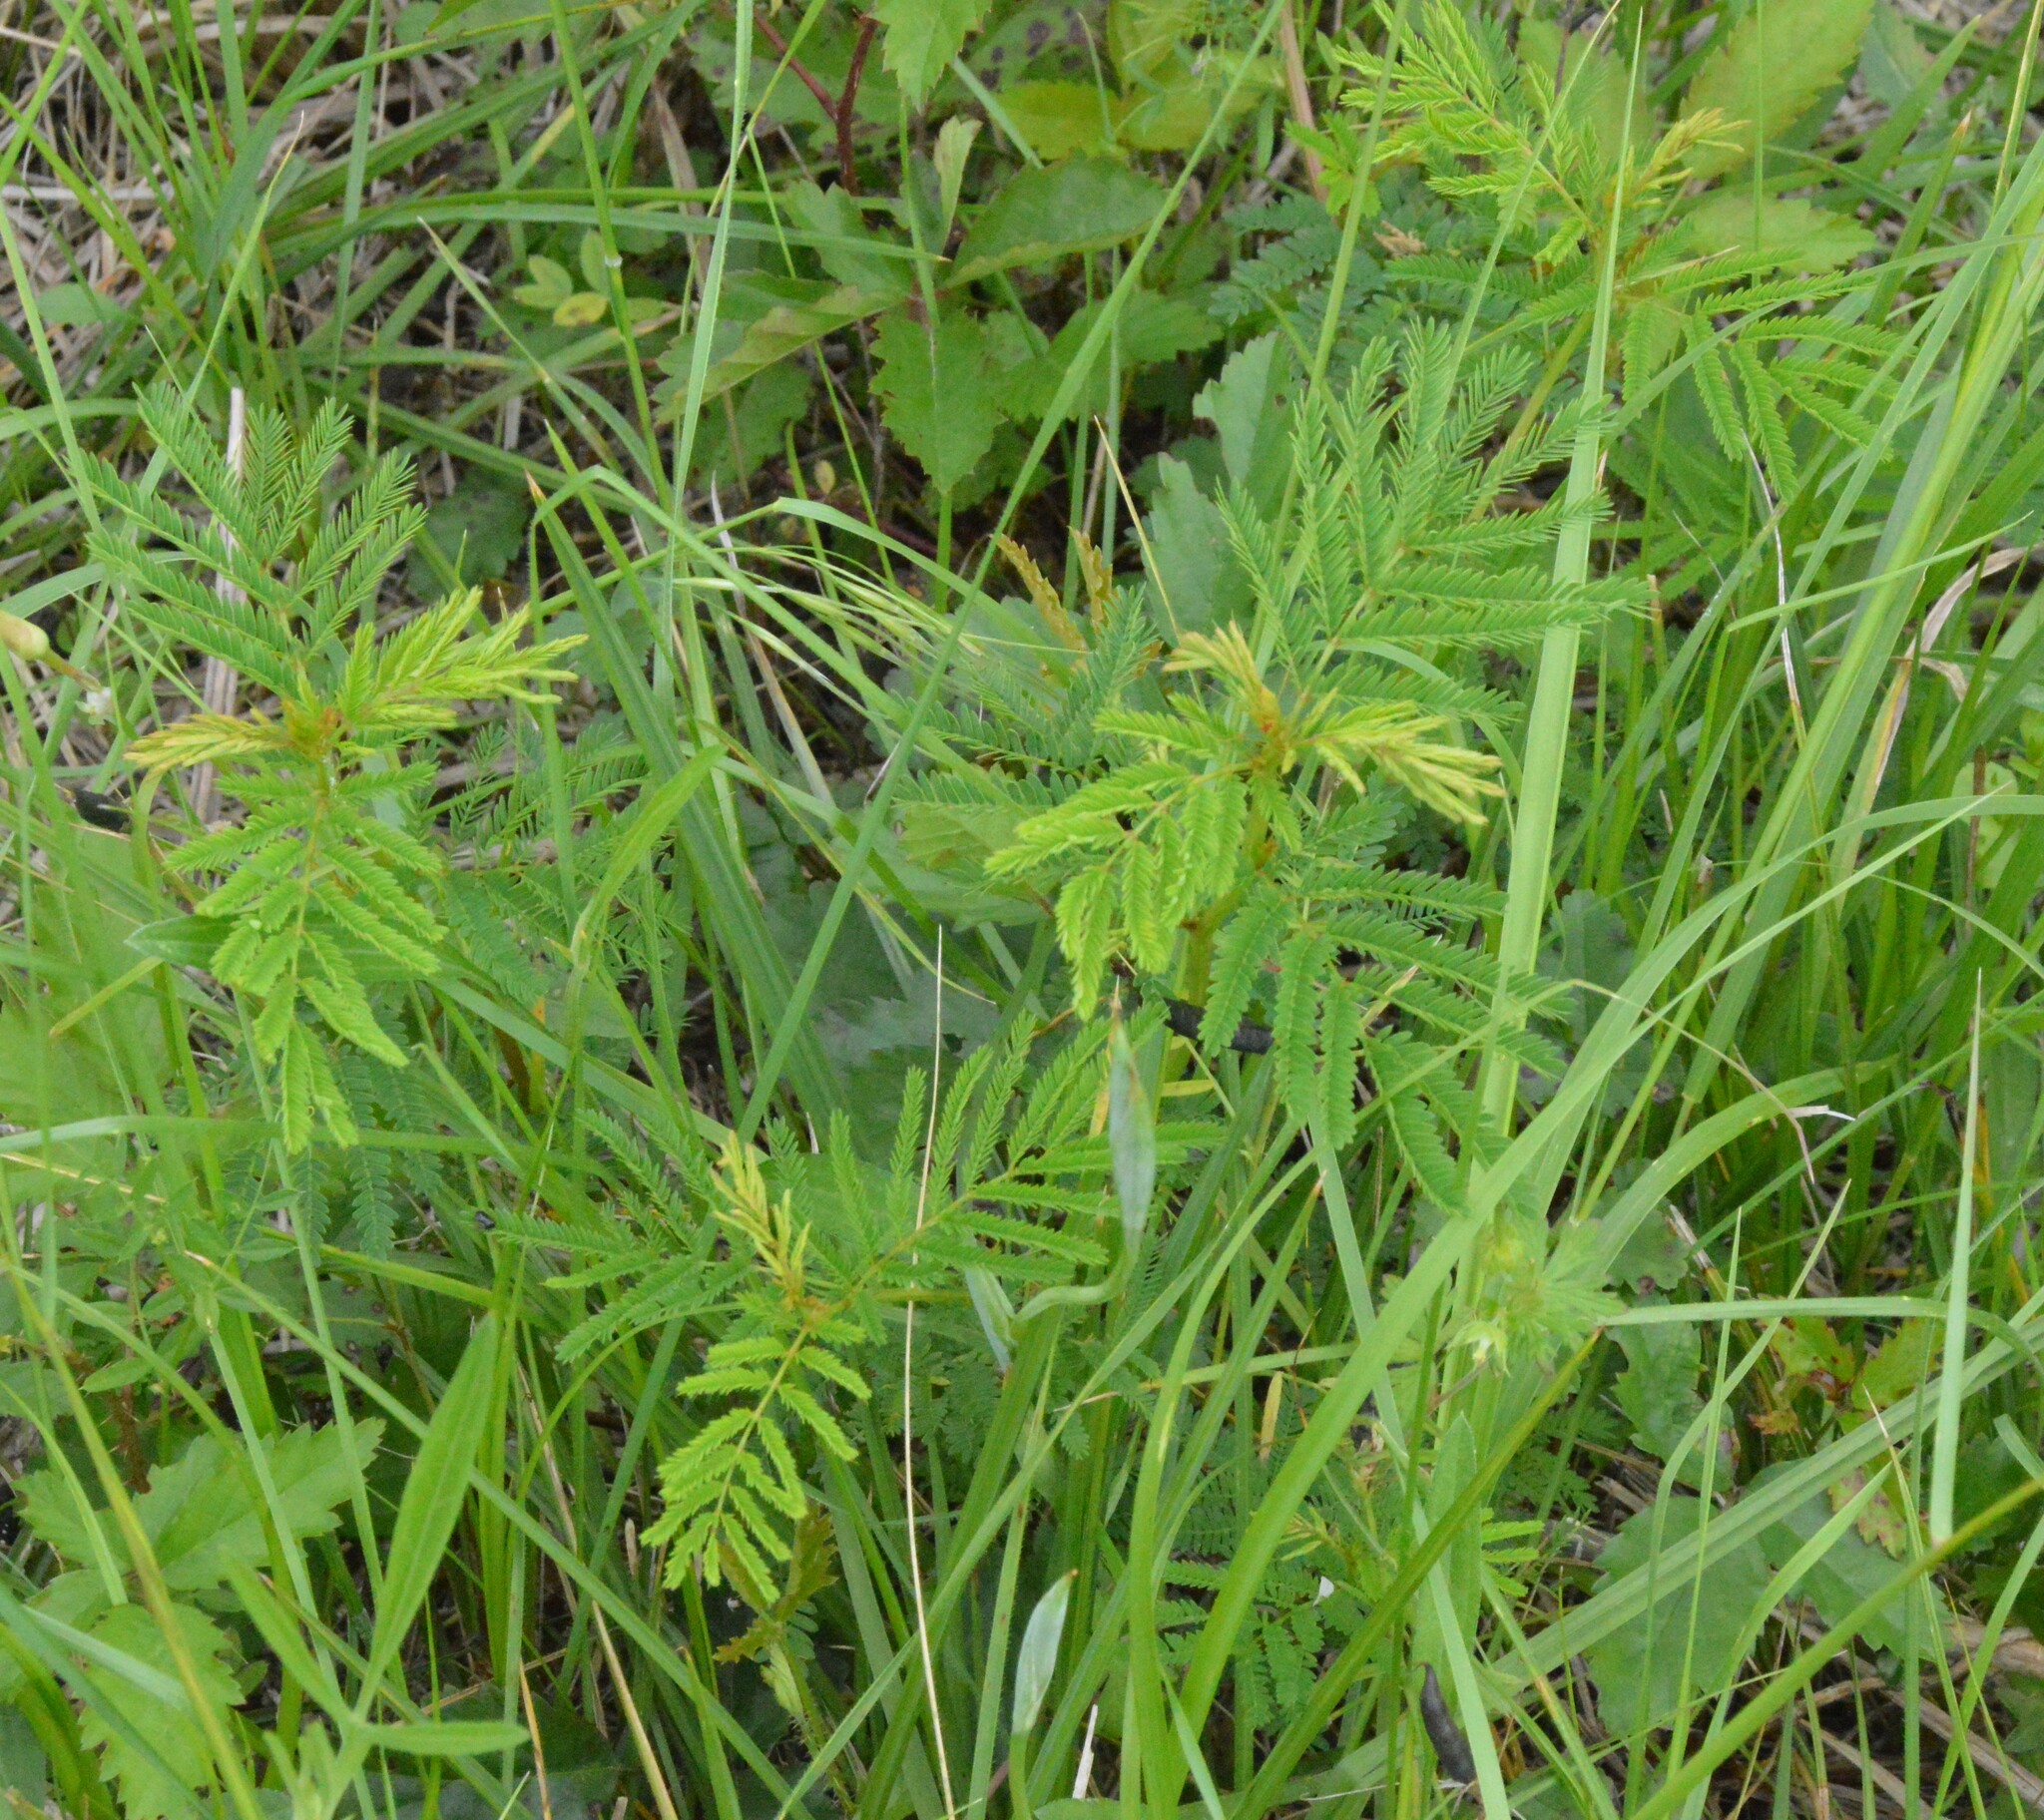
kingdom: Plantae
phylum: Tracheophyta
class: Magnoliopsida
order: Fabales
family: Fabaceae
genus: Desmanthus
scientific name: Desmanthus illinoensis
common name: Illinois bundle-flower
